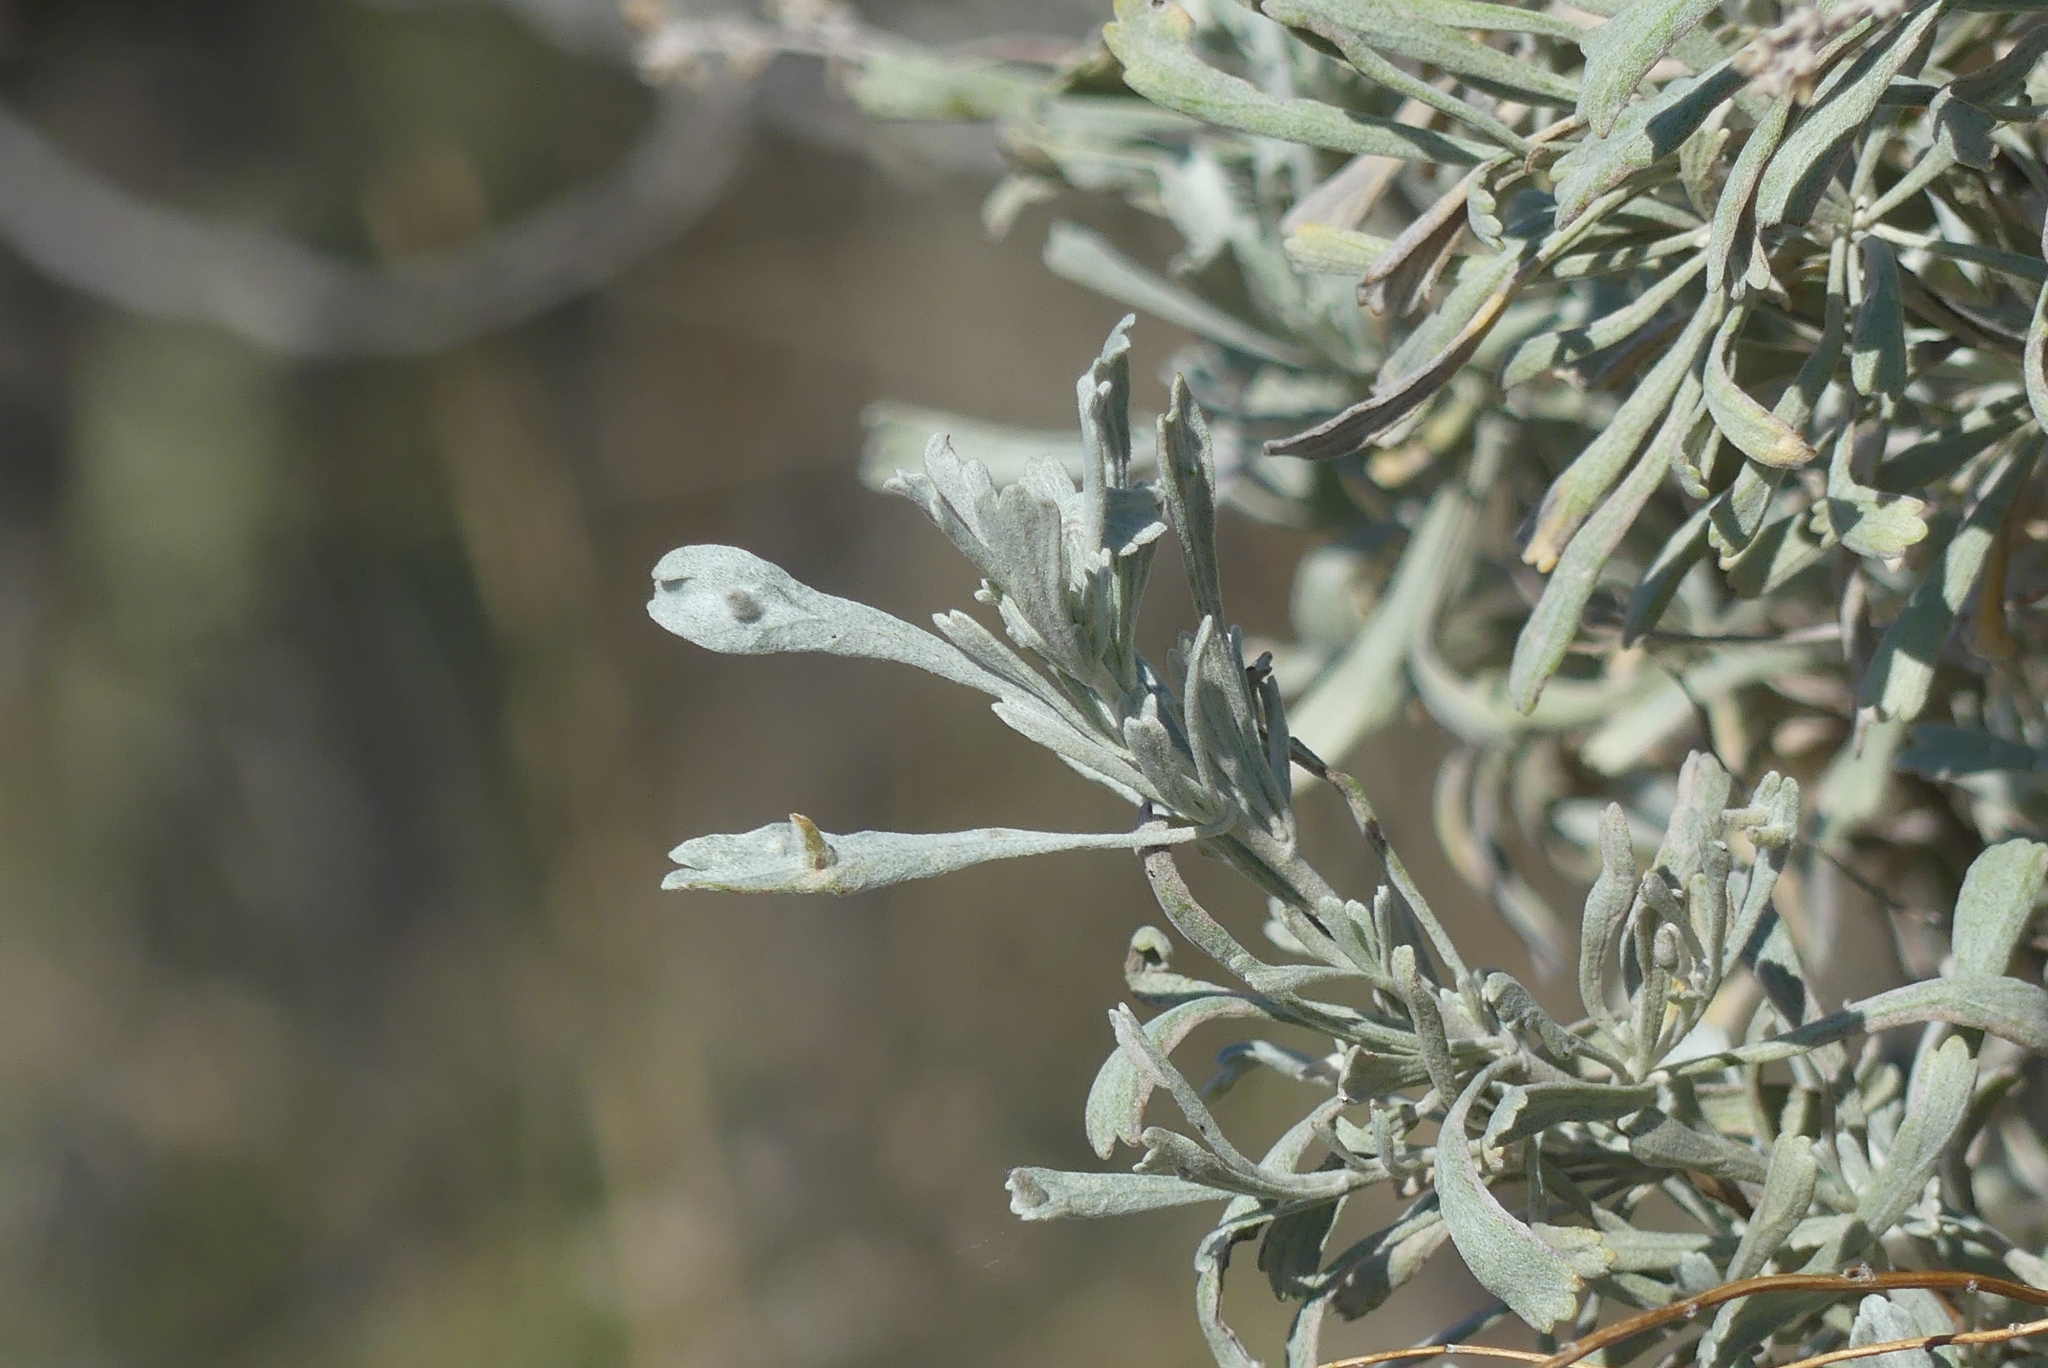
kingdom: Plantae
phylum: Tracheophyta
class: Magnoliopsida
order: Asterales
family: Asteraceae
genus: Artemisia
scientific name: Artemisia tridentata
